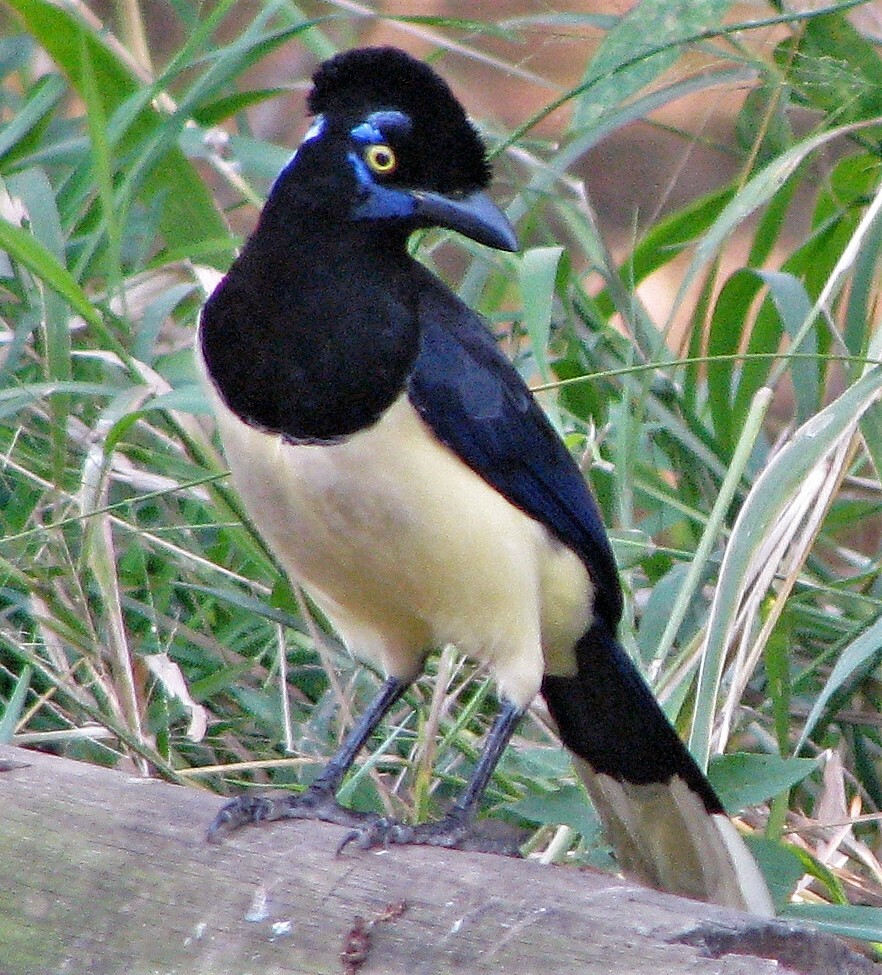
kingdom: Animalia
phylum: Chordata
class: Aves
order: Passeriformes
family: Corvidae
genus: Cyanocorax
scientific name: Cyanocorax chrysops
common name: Plush-crested jay
